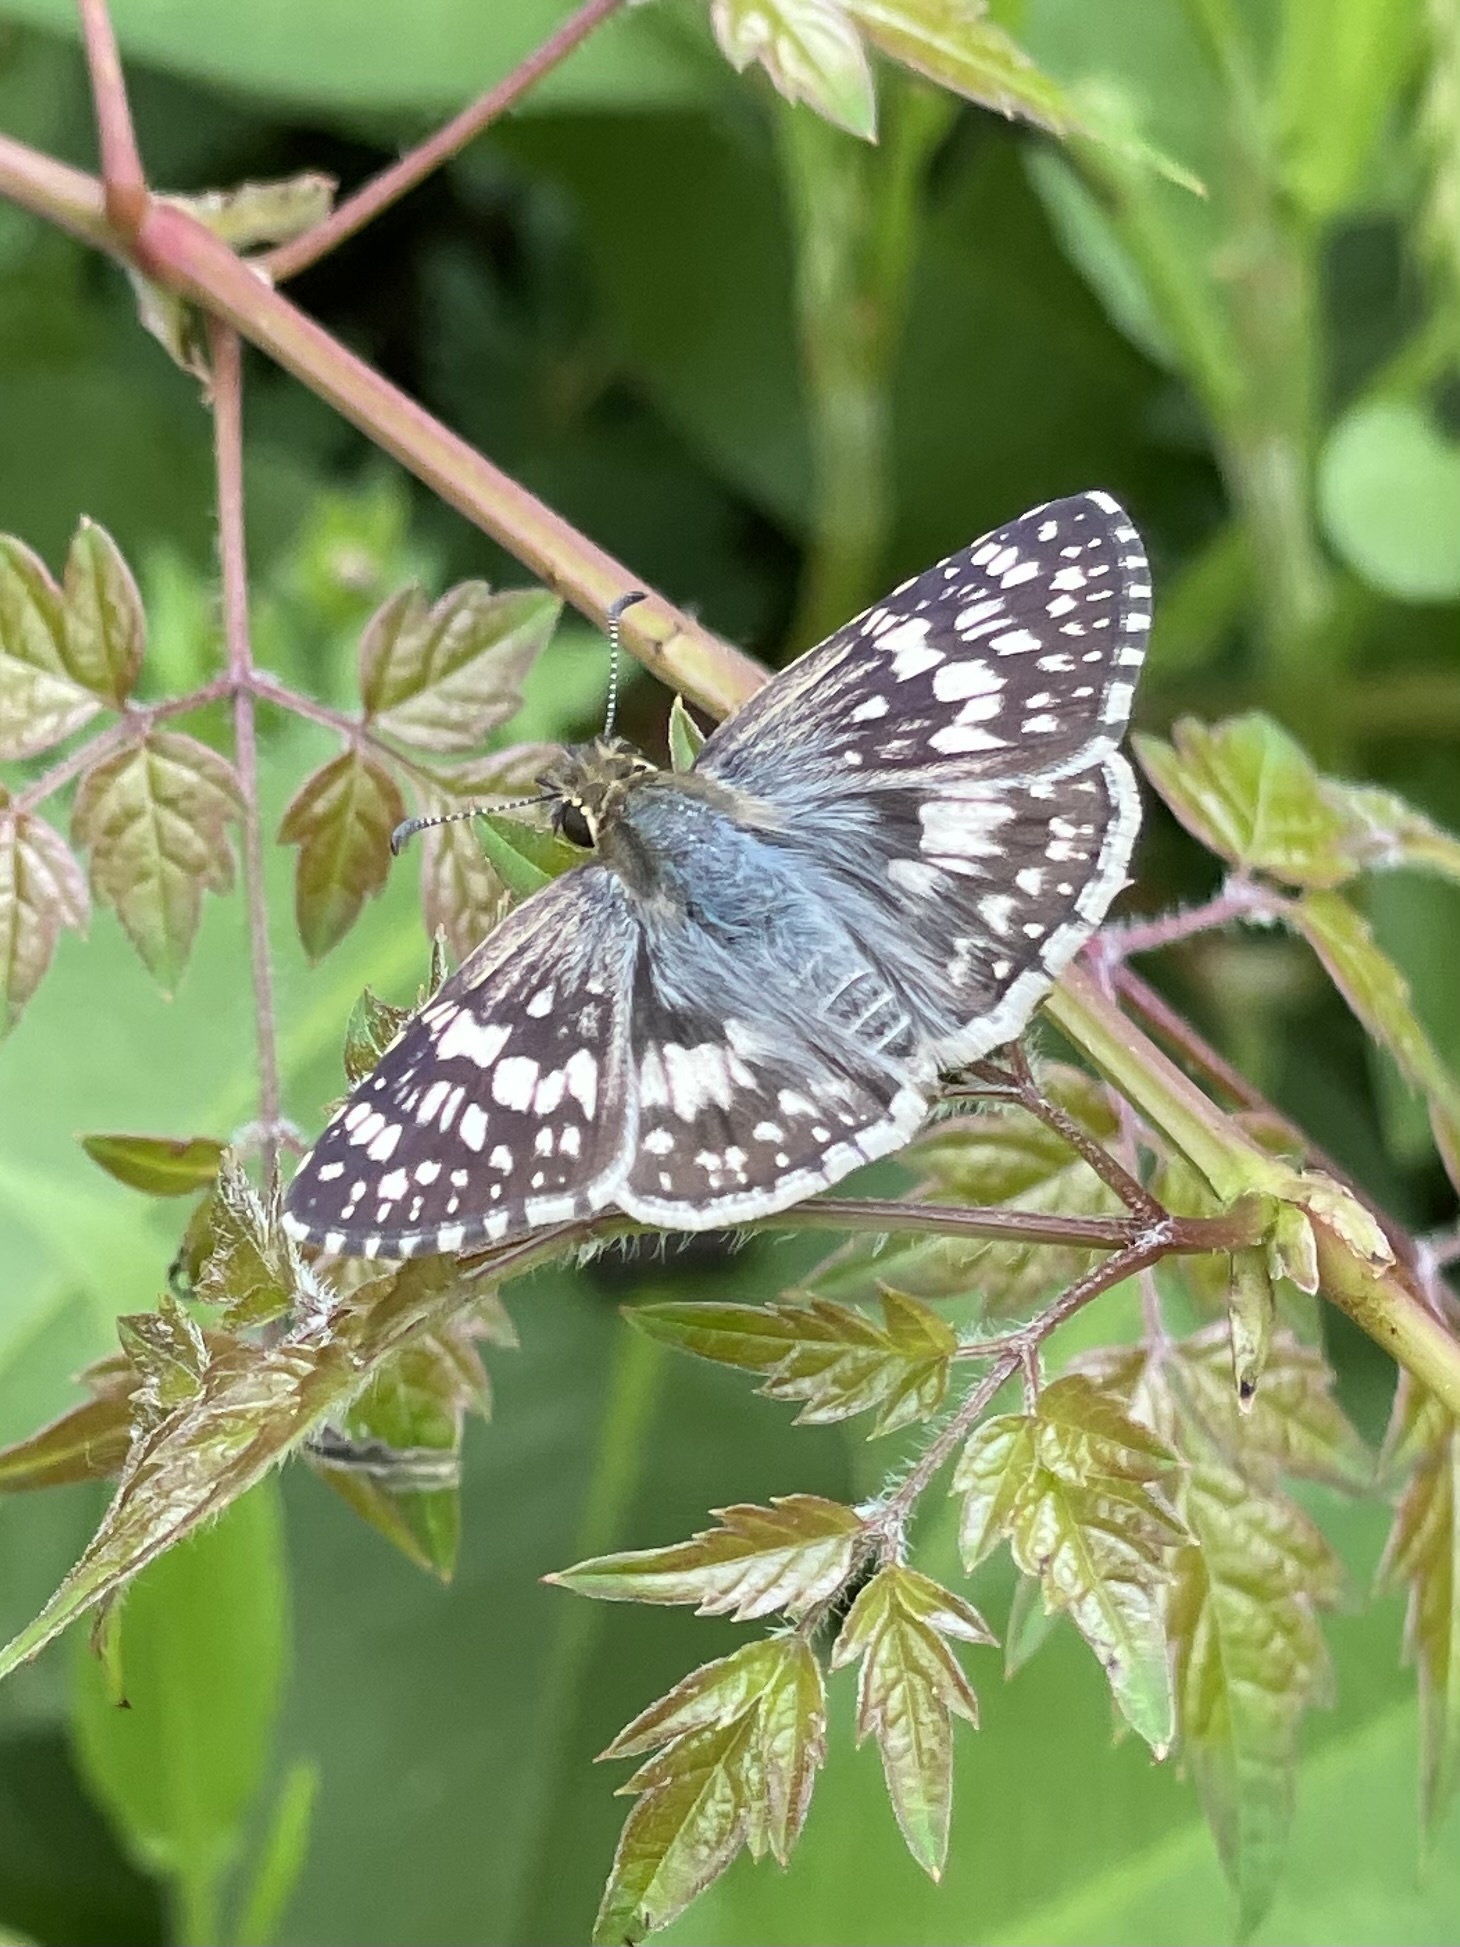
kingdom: Animalia
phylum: Arthropoda
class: Insecta
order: Lepidoptera
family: Hesperiidae
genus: Burnsius
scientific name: Burnsius
